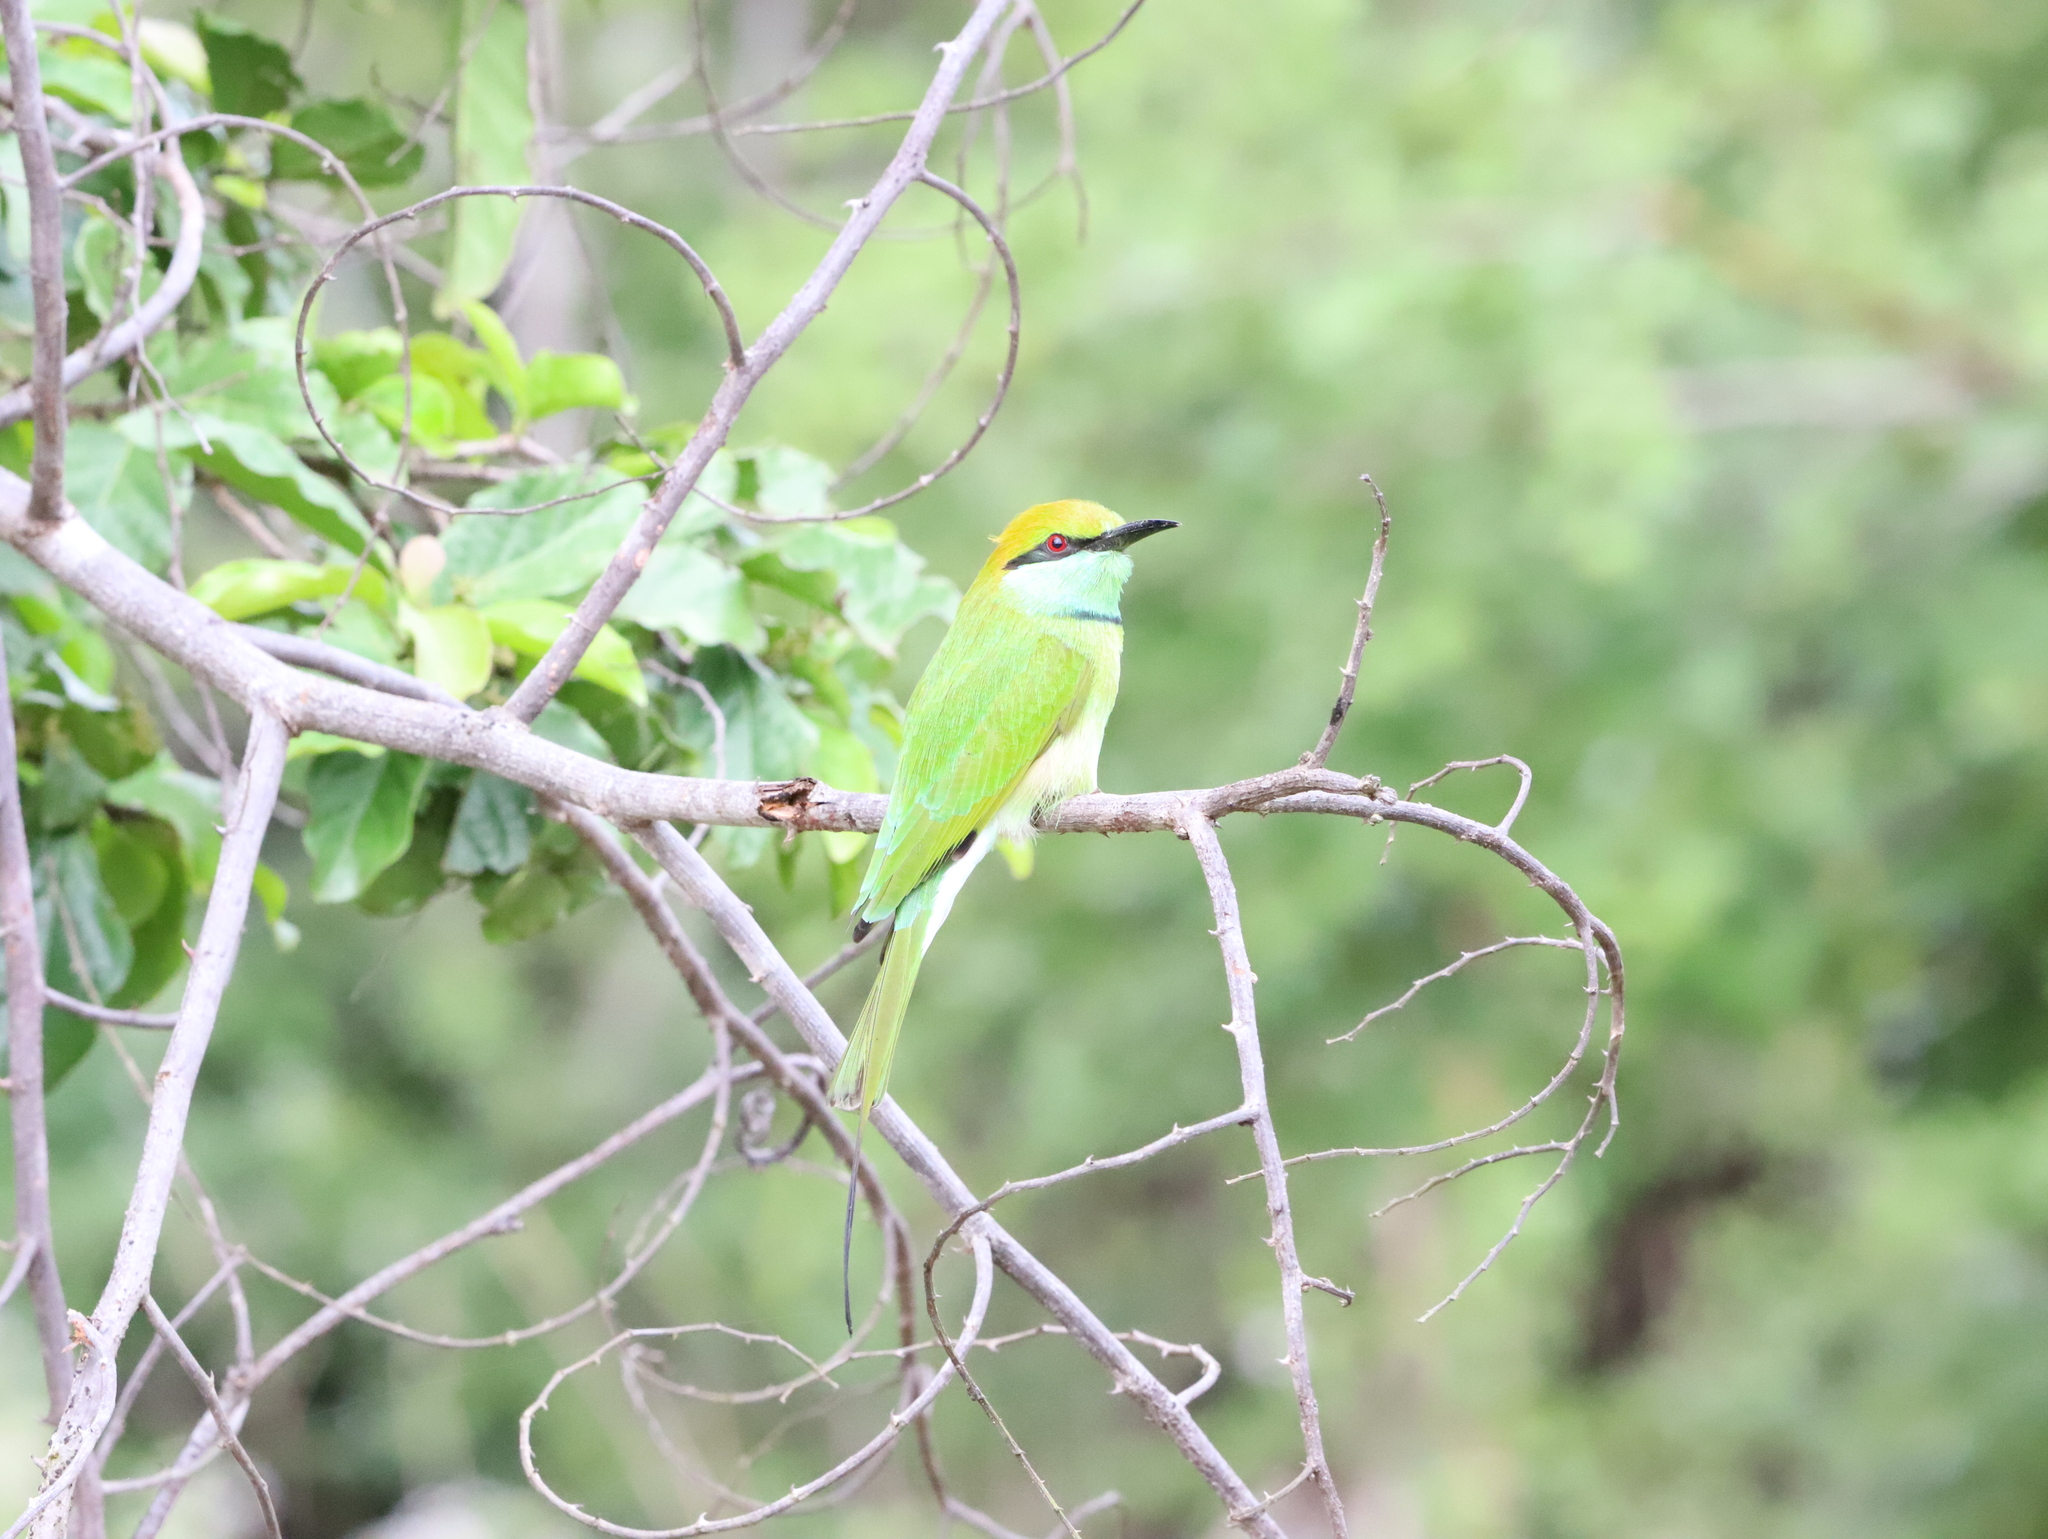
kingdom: Animalia
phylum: Chordata
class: Aves
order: Coraciiformes
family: Meropidae
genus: Merops
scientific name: Merops orientalis
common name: Green bee-eater
